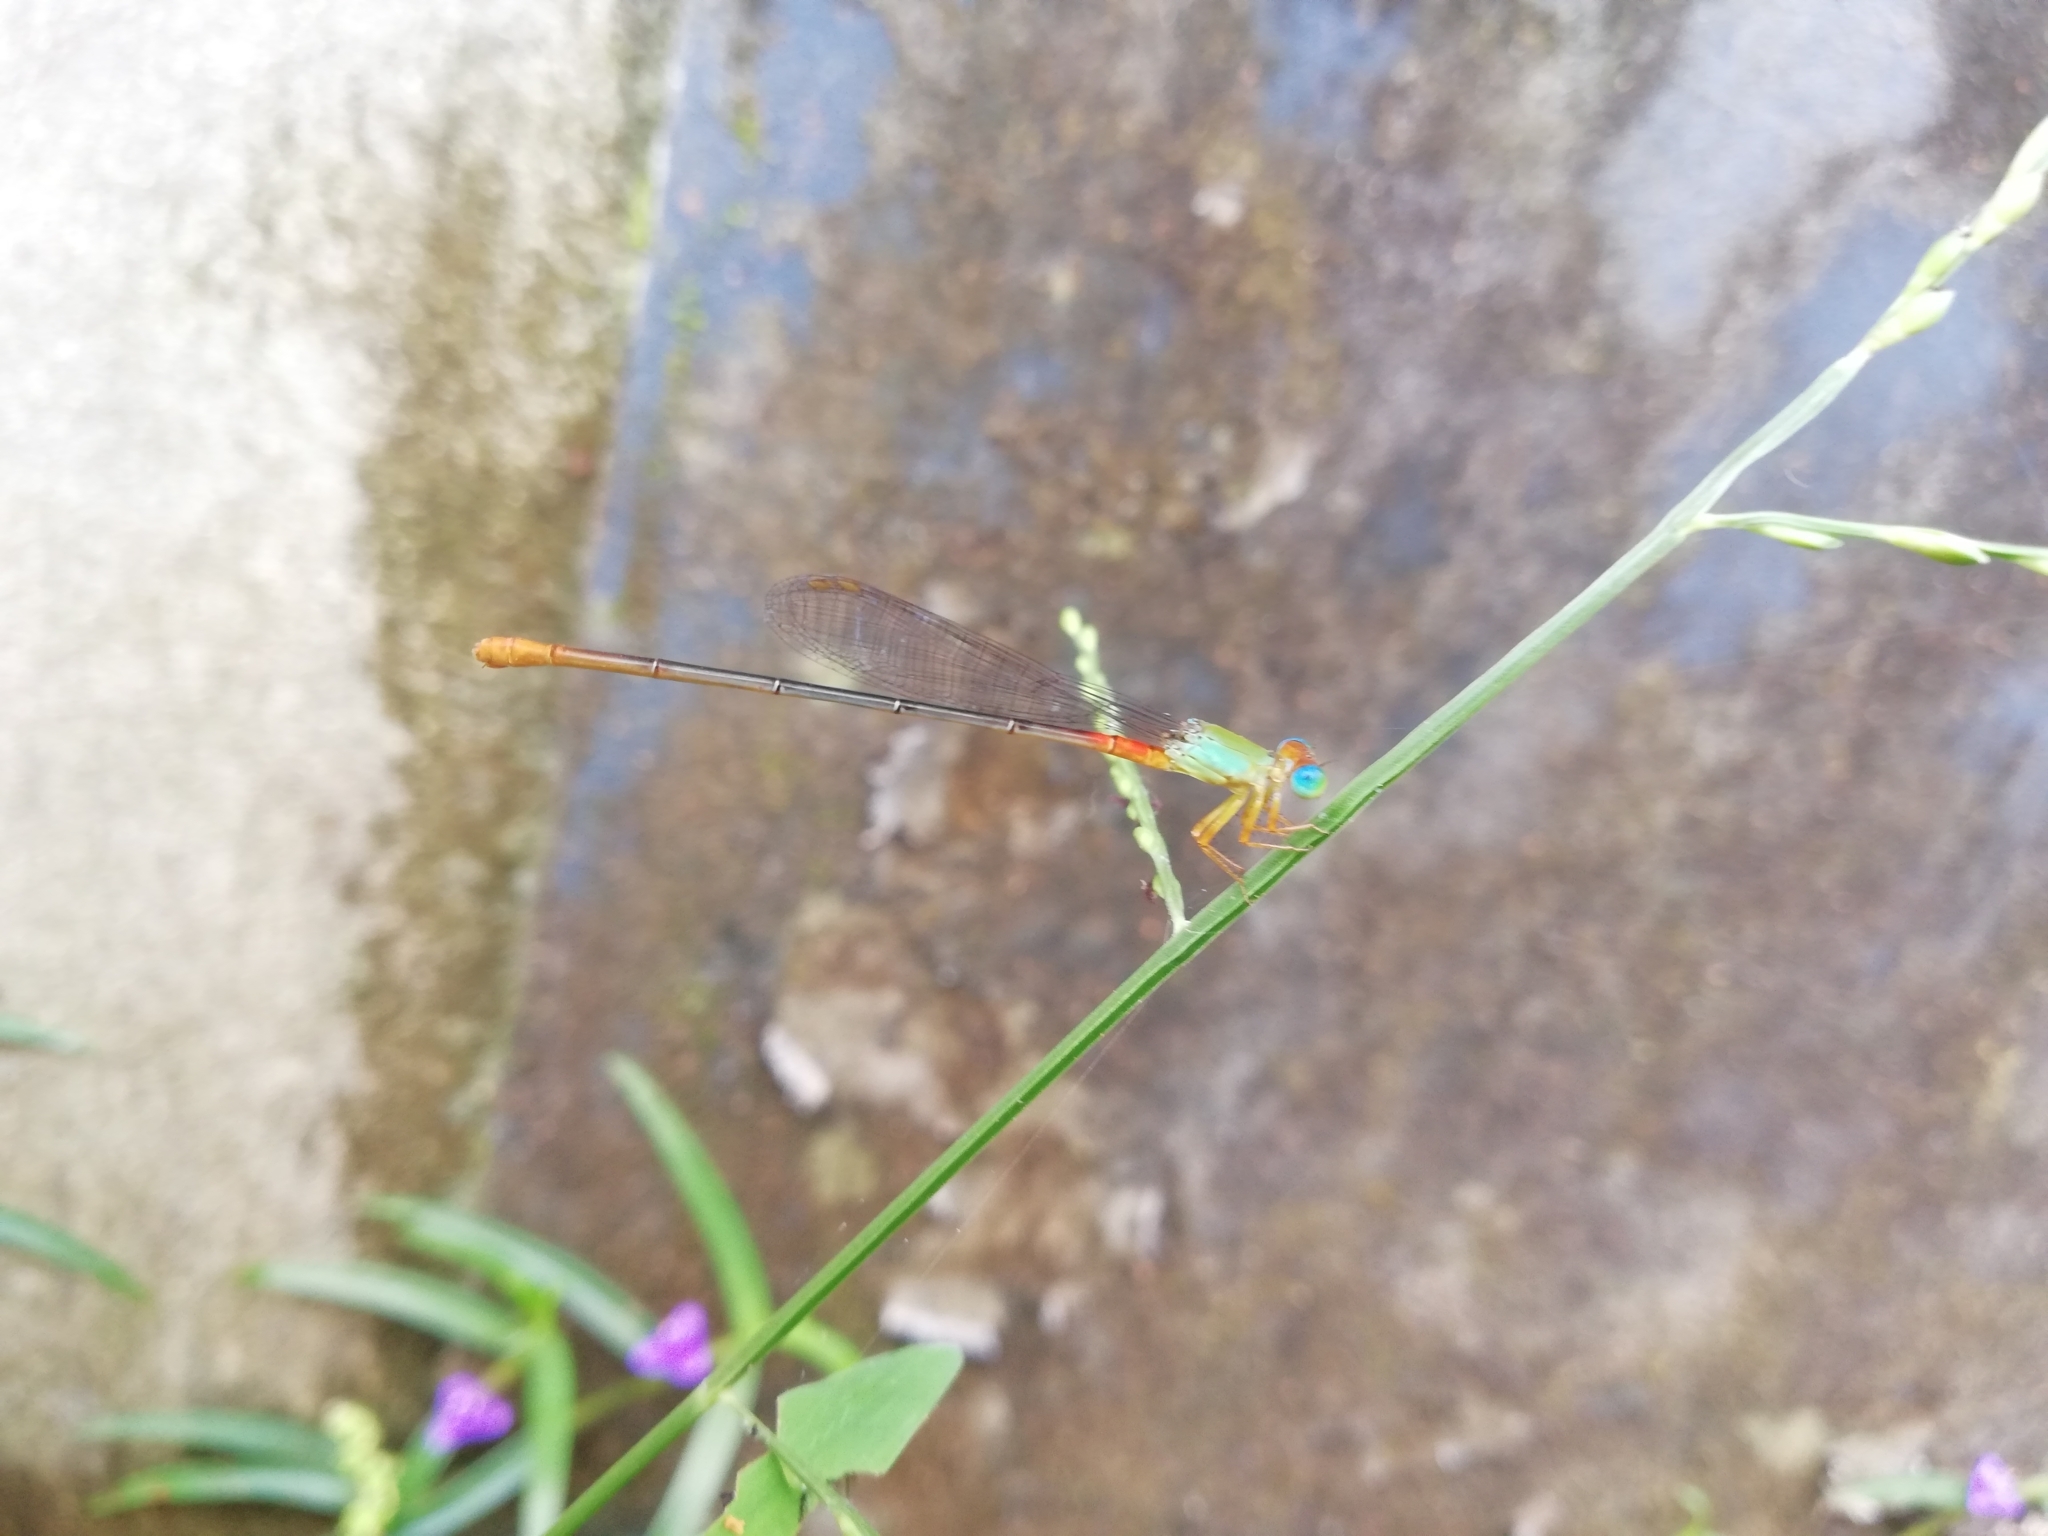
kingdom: Animalia
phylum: Arthropoda
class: Insecta
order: Odonata
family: Coenagrionidae
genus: Ceriagrion
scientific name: Ceriagrion cerinorubellum
